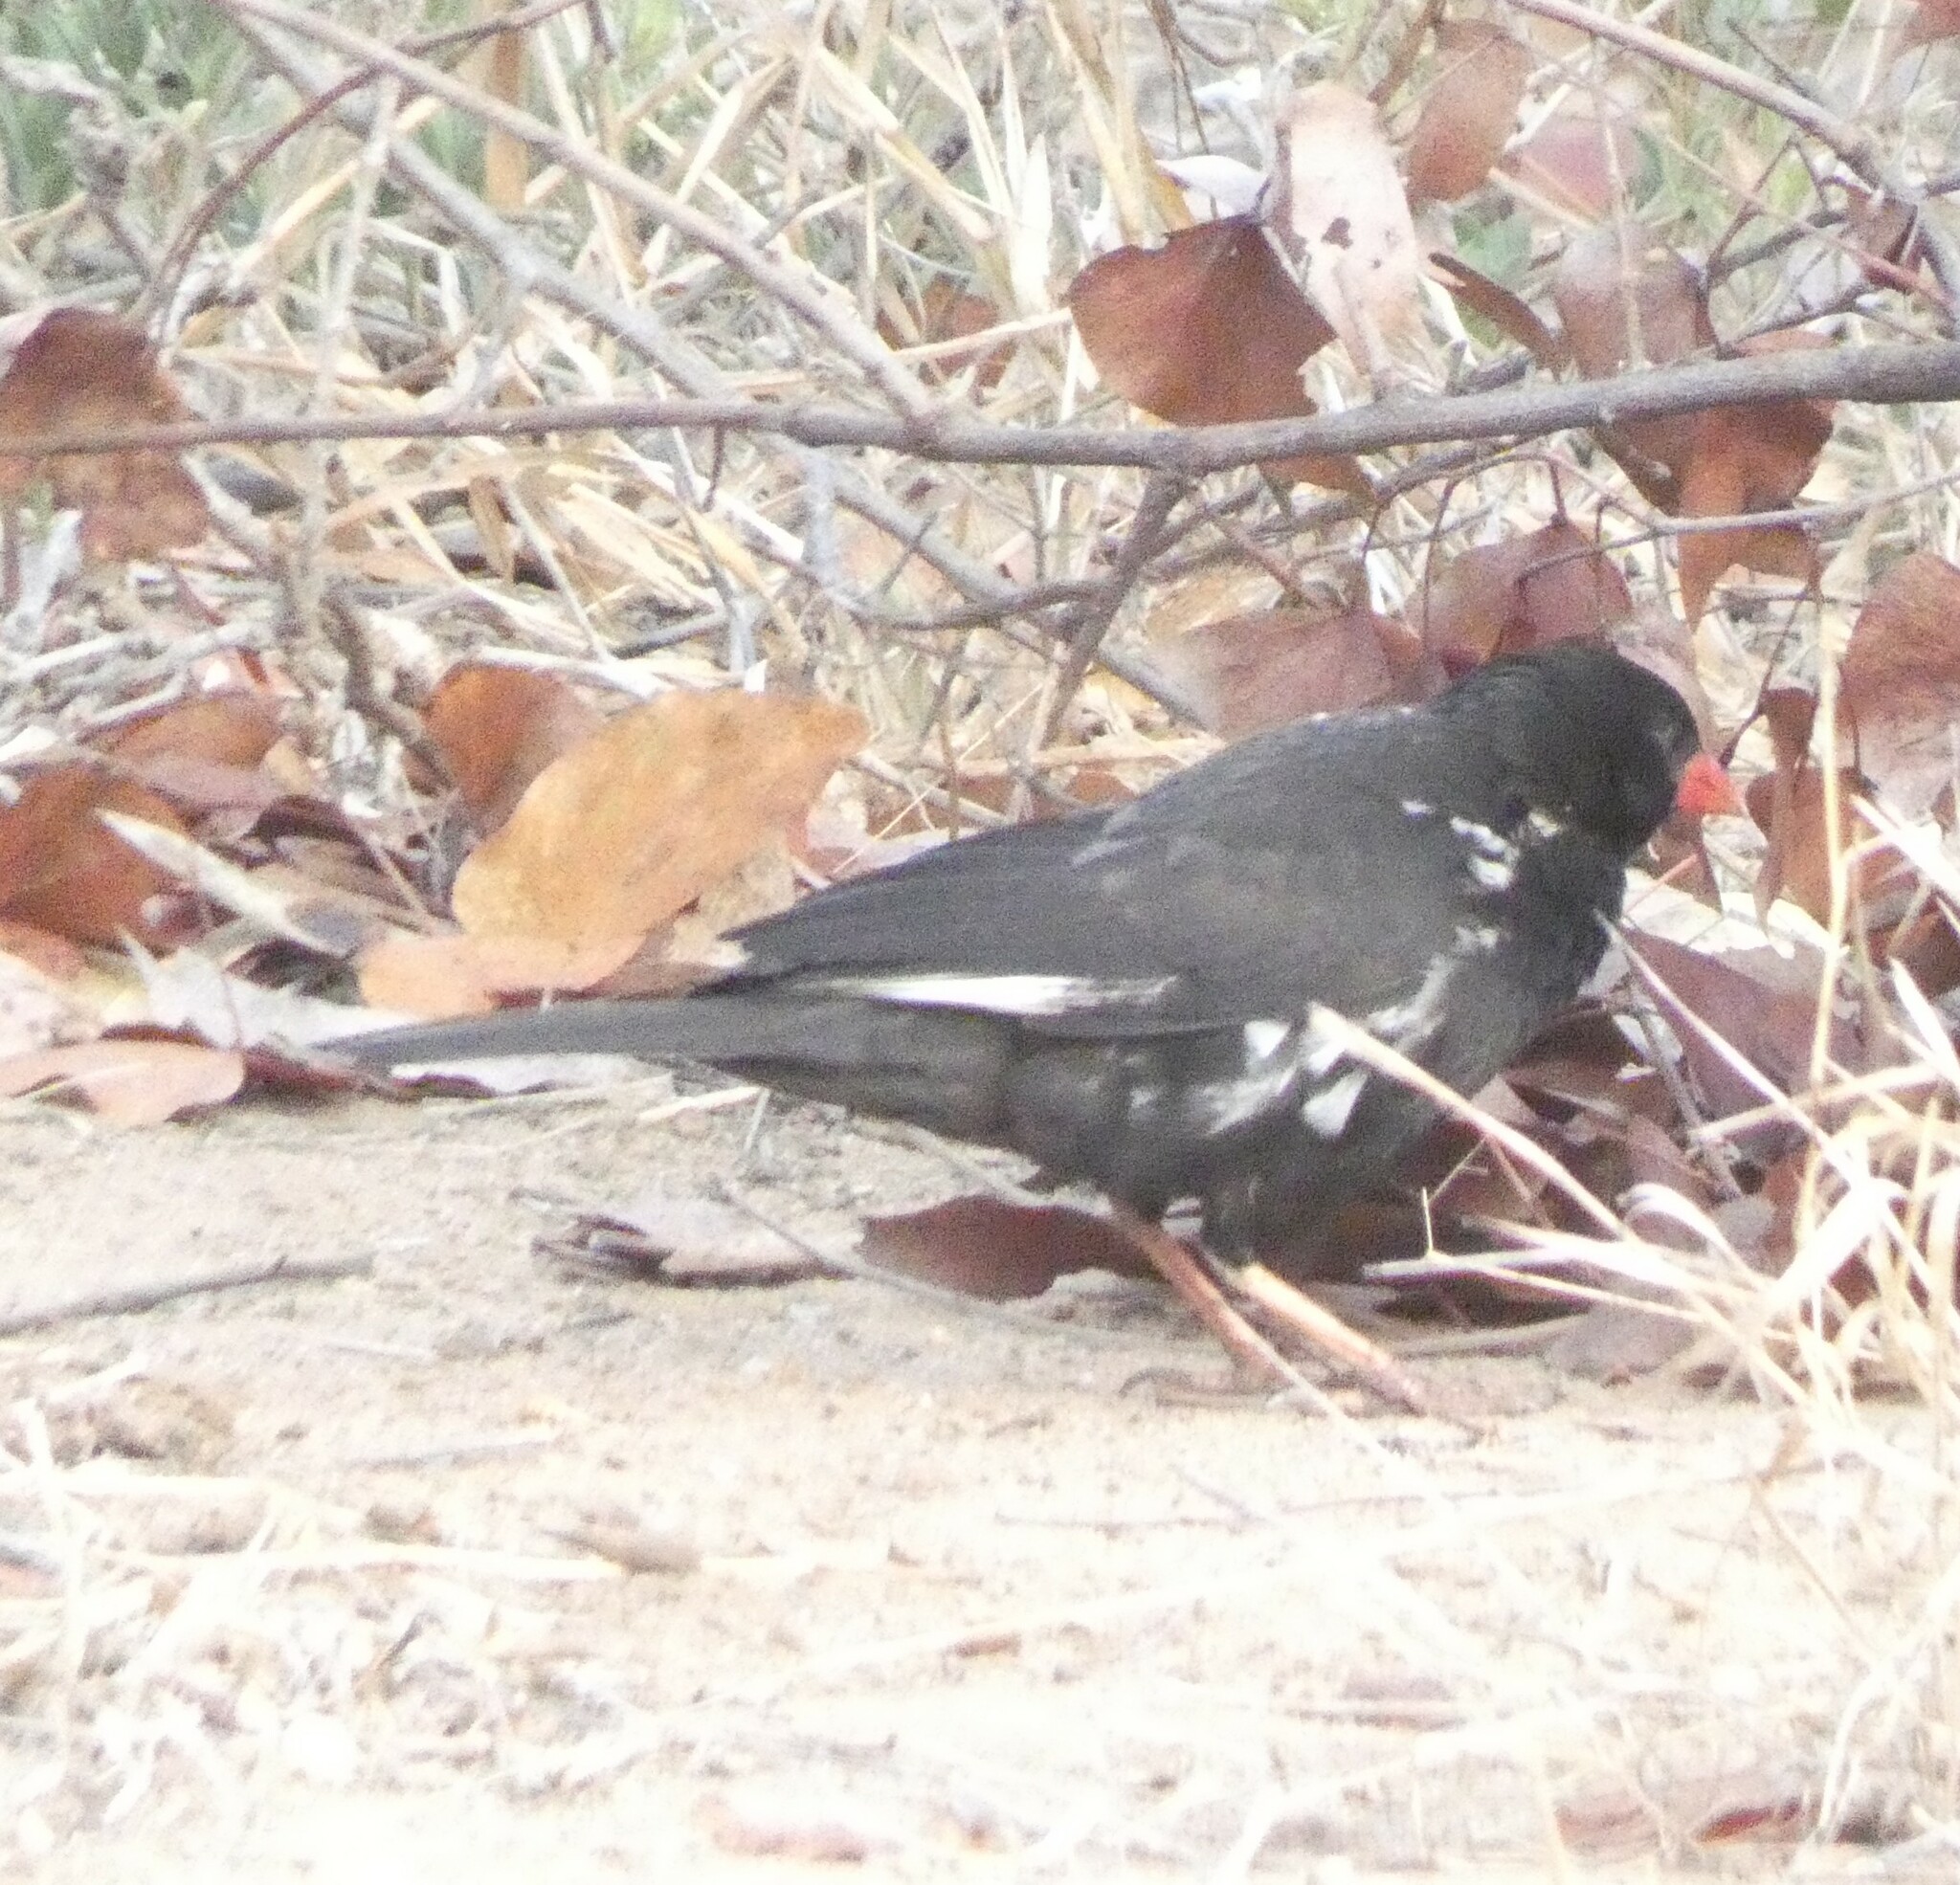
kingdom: Animalia
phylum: Chordata
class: Aves
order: Passeriformes
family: Ploceidae
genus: Bubalornis
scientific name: Bubalornis niger
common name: Red-billed buffalo weaver
